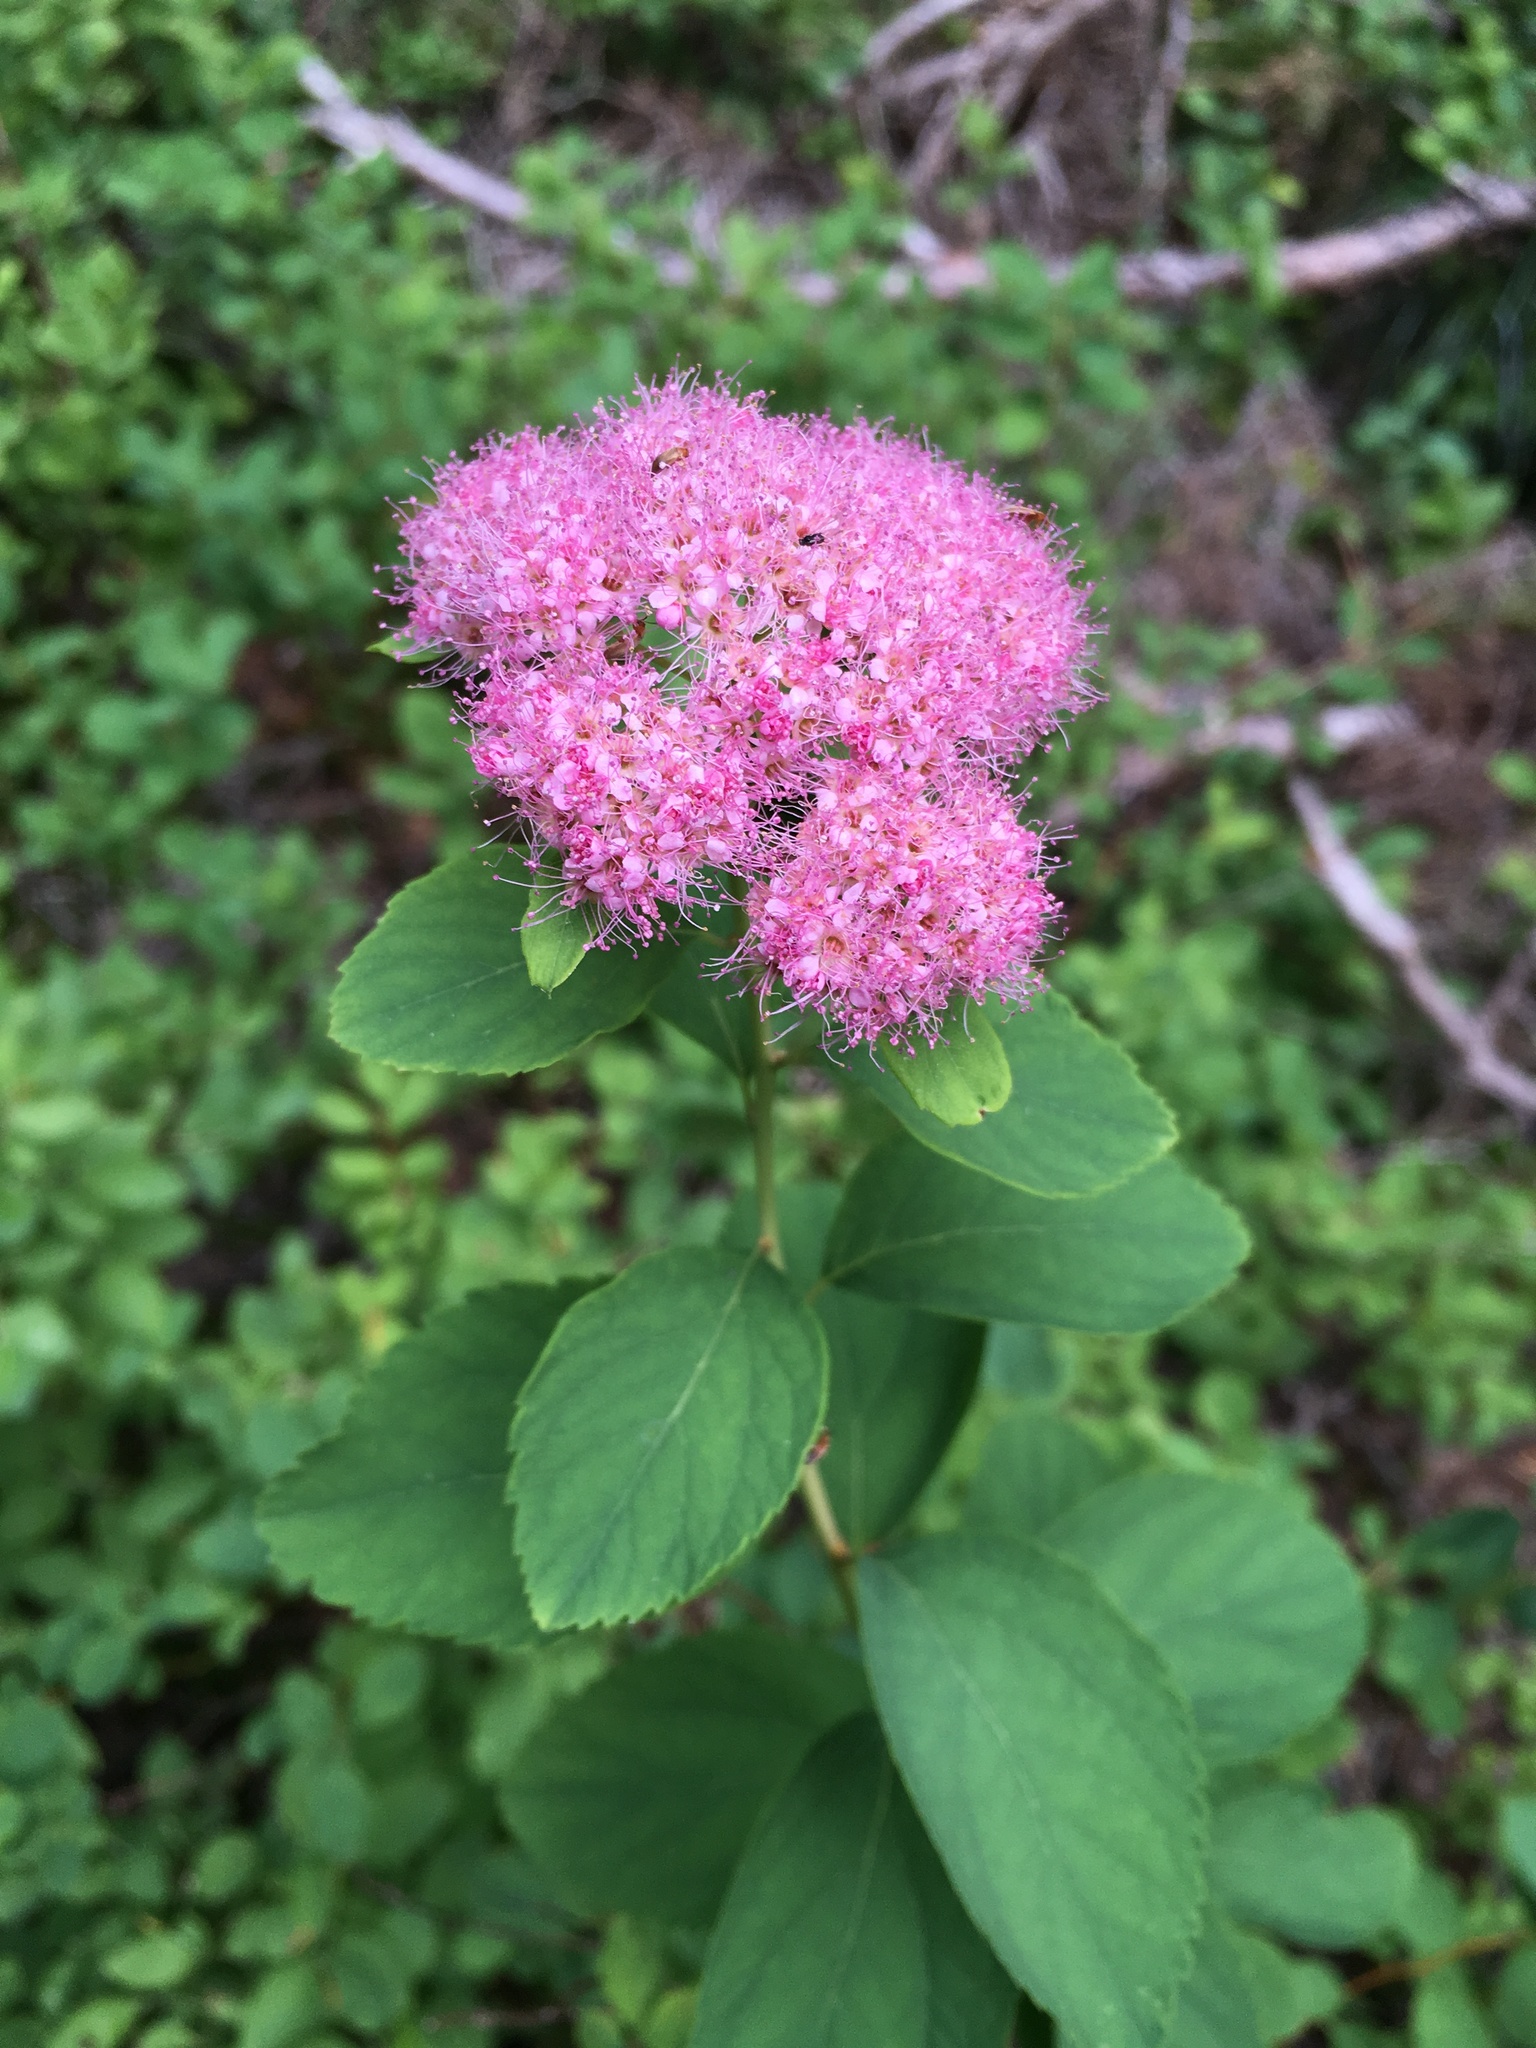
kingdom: Plantae
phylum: Tracheophyta
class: Magnoliopsida
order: Rosales
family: Rosaceae
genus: Spiraea
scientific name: Spiraea splendens
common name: Subalpine meadowsweet
